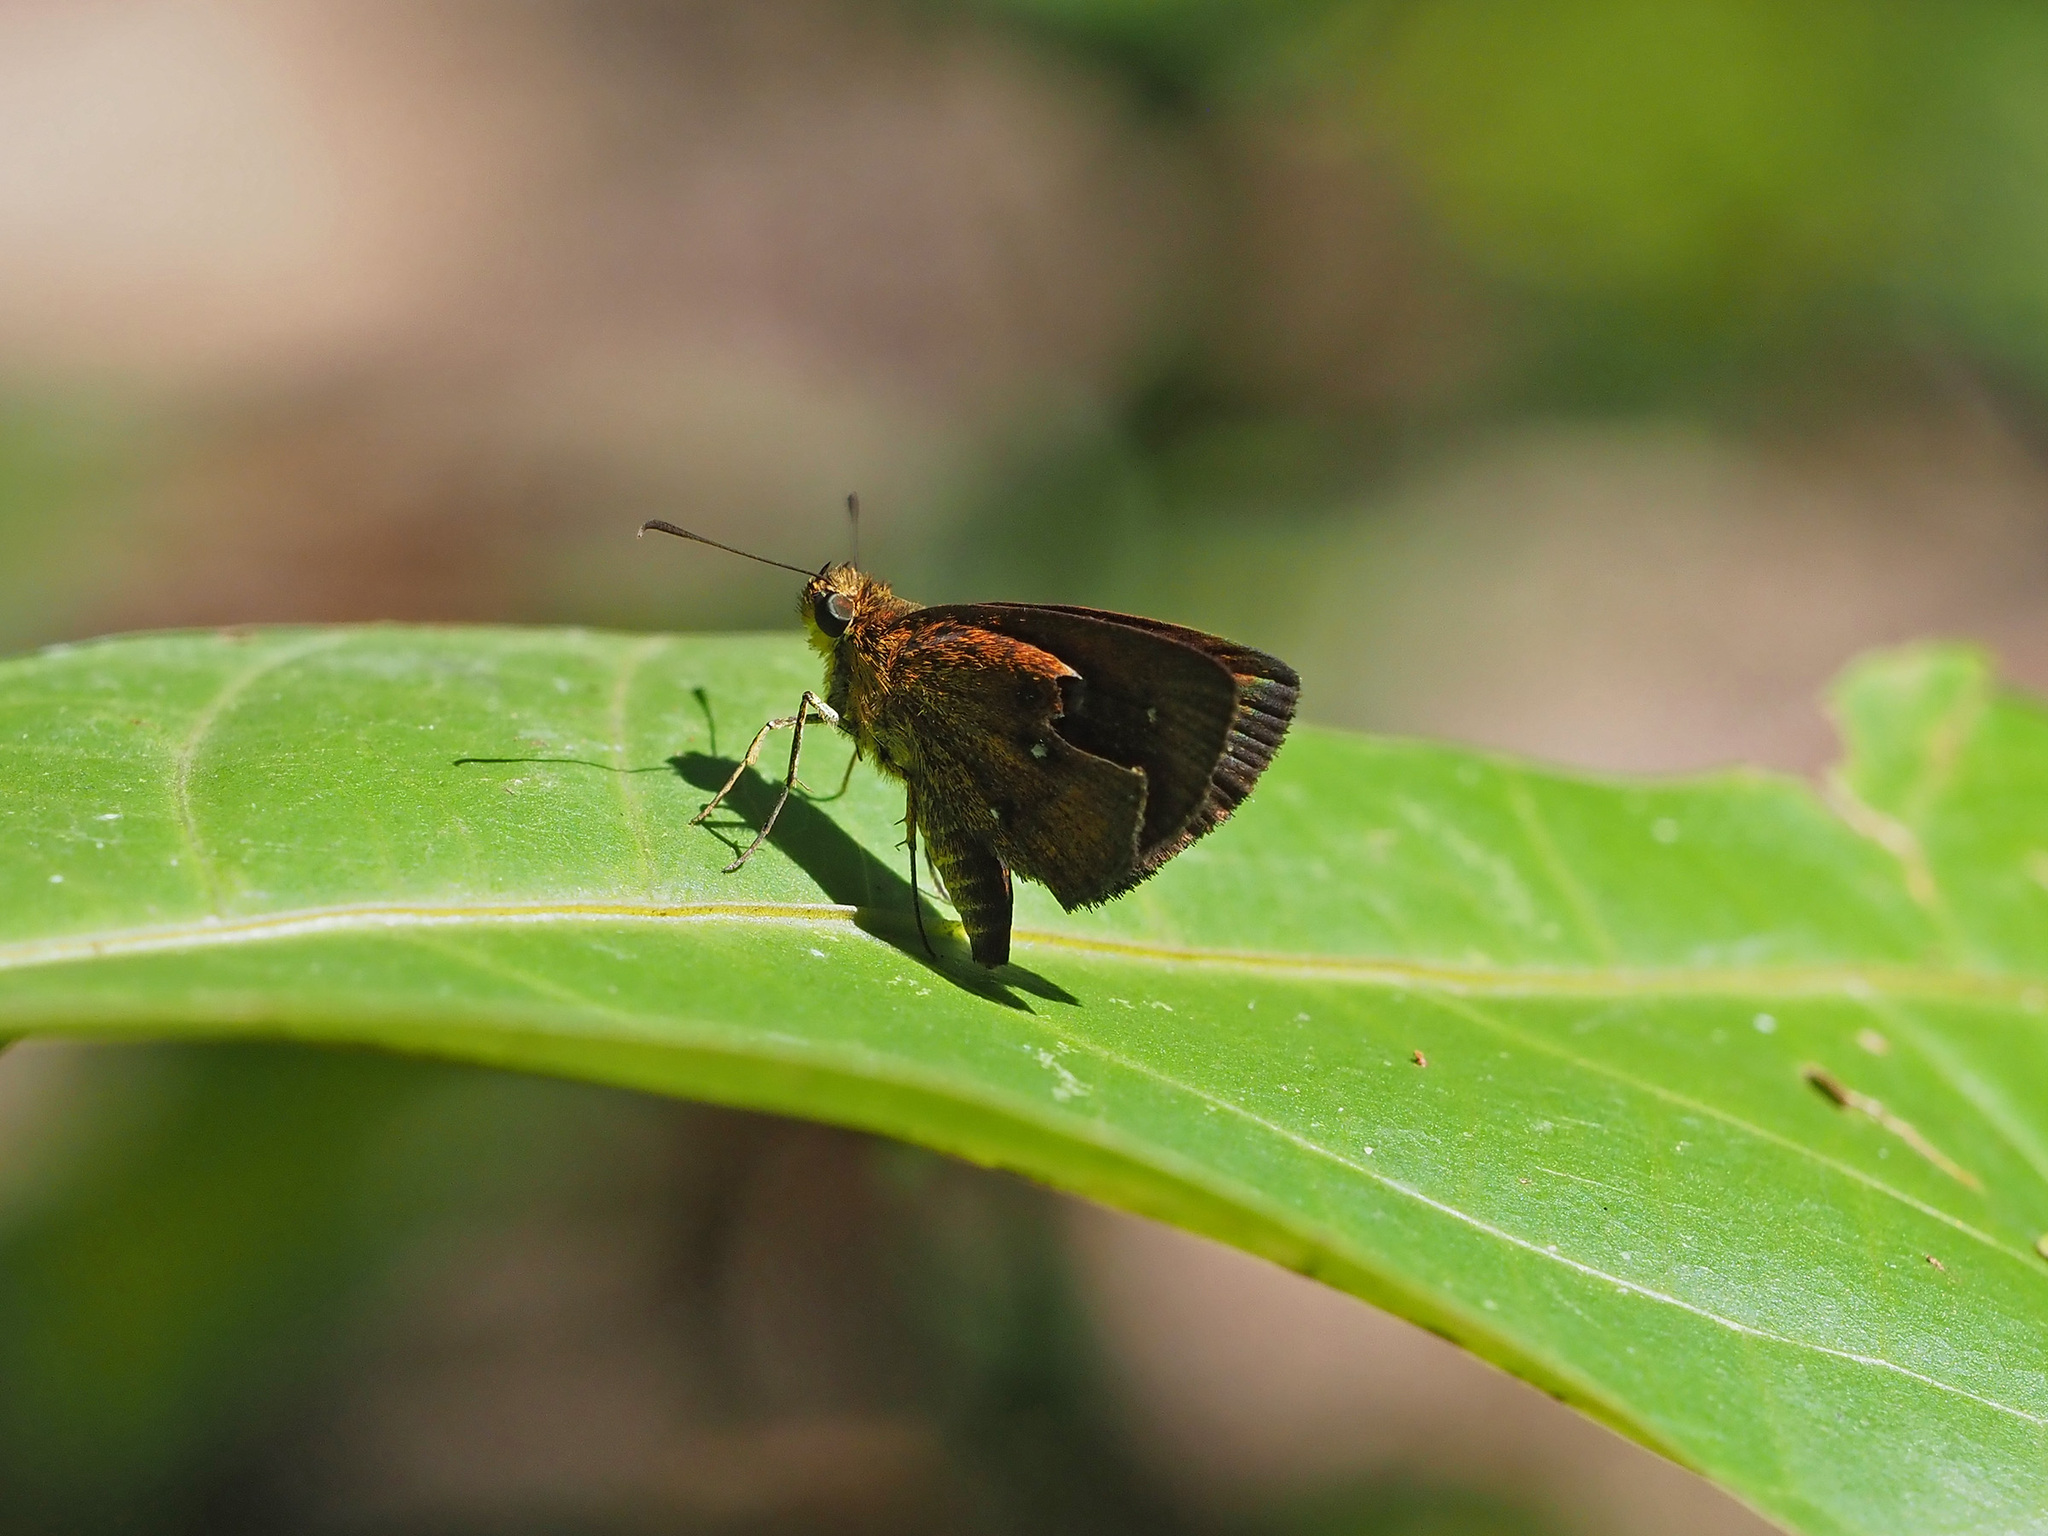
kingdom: Animalia
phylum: Arthropoda
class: Insecta
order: Lepidoptera
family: Hesperiidae
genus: Iambrix
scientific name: Iambrix salsala
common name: Chestnut bob
